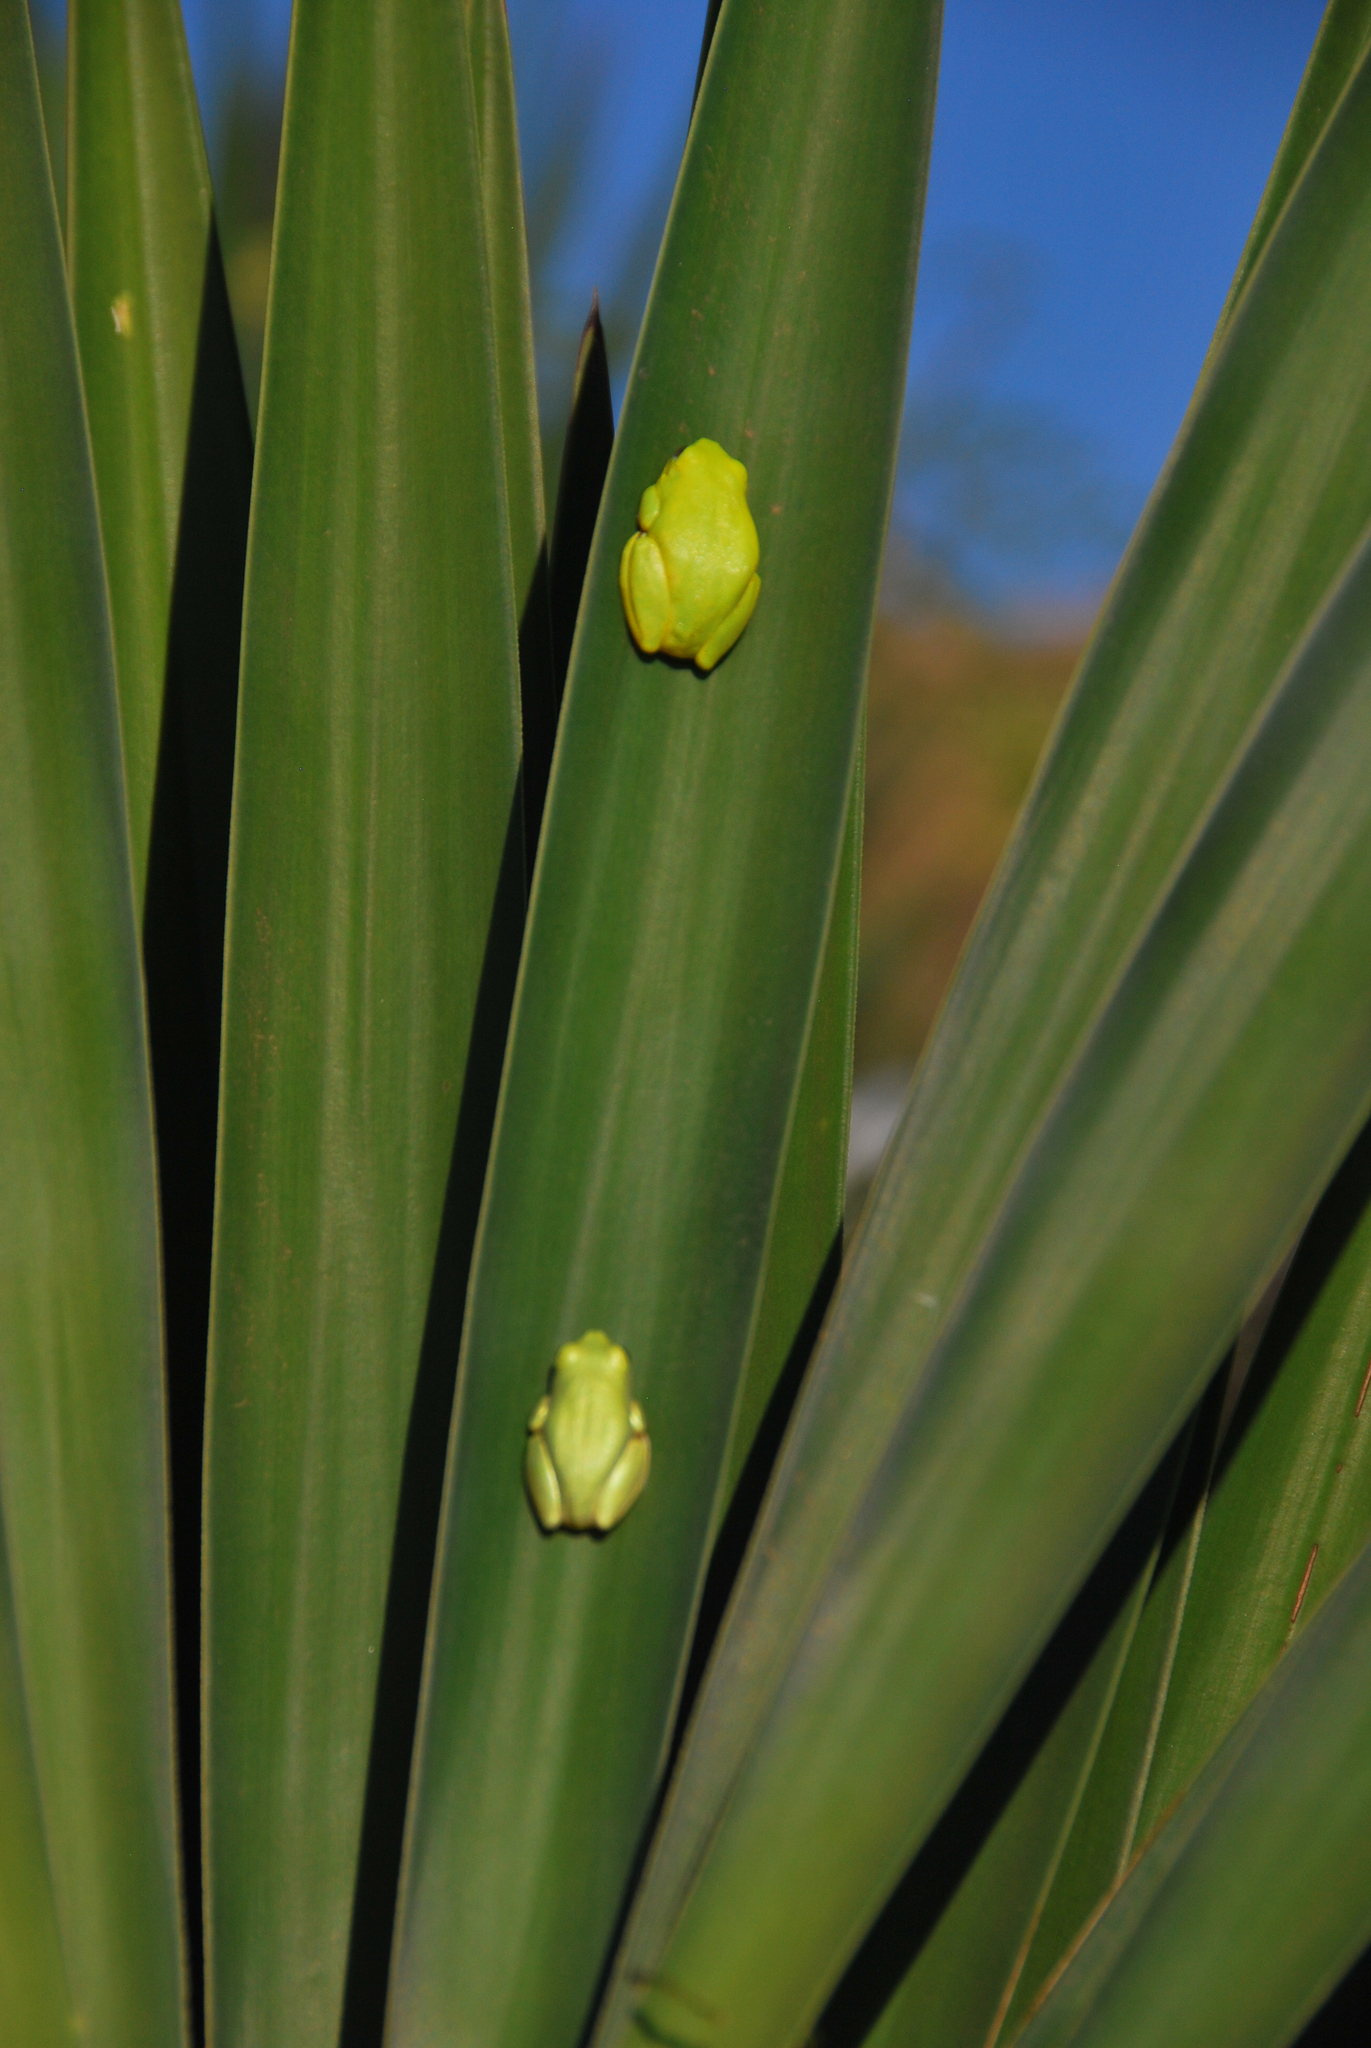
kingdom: Animalia
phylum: Chordata
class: Amphibia
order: Anura
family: Hyperoliidae
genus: Heterixalus
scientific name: Heterixalus boettgeri
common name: Boettger's reed frog
